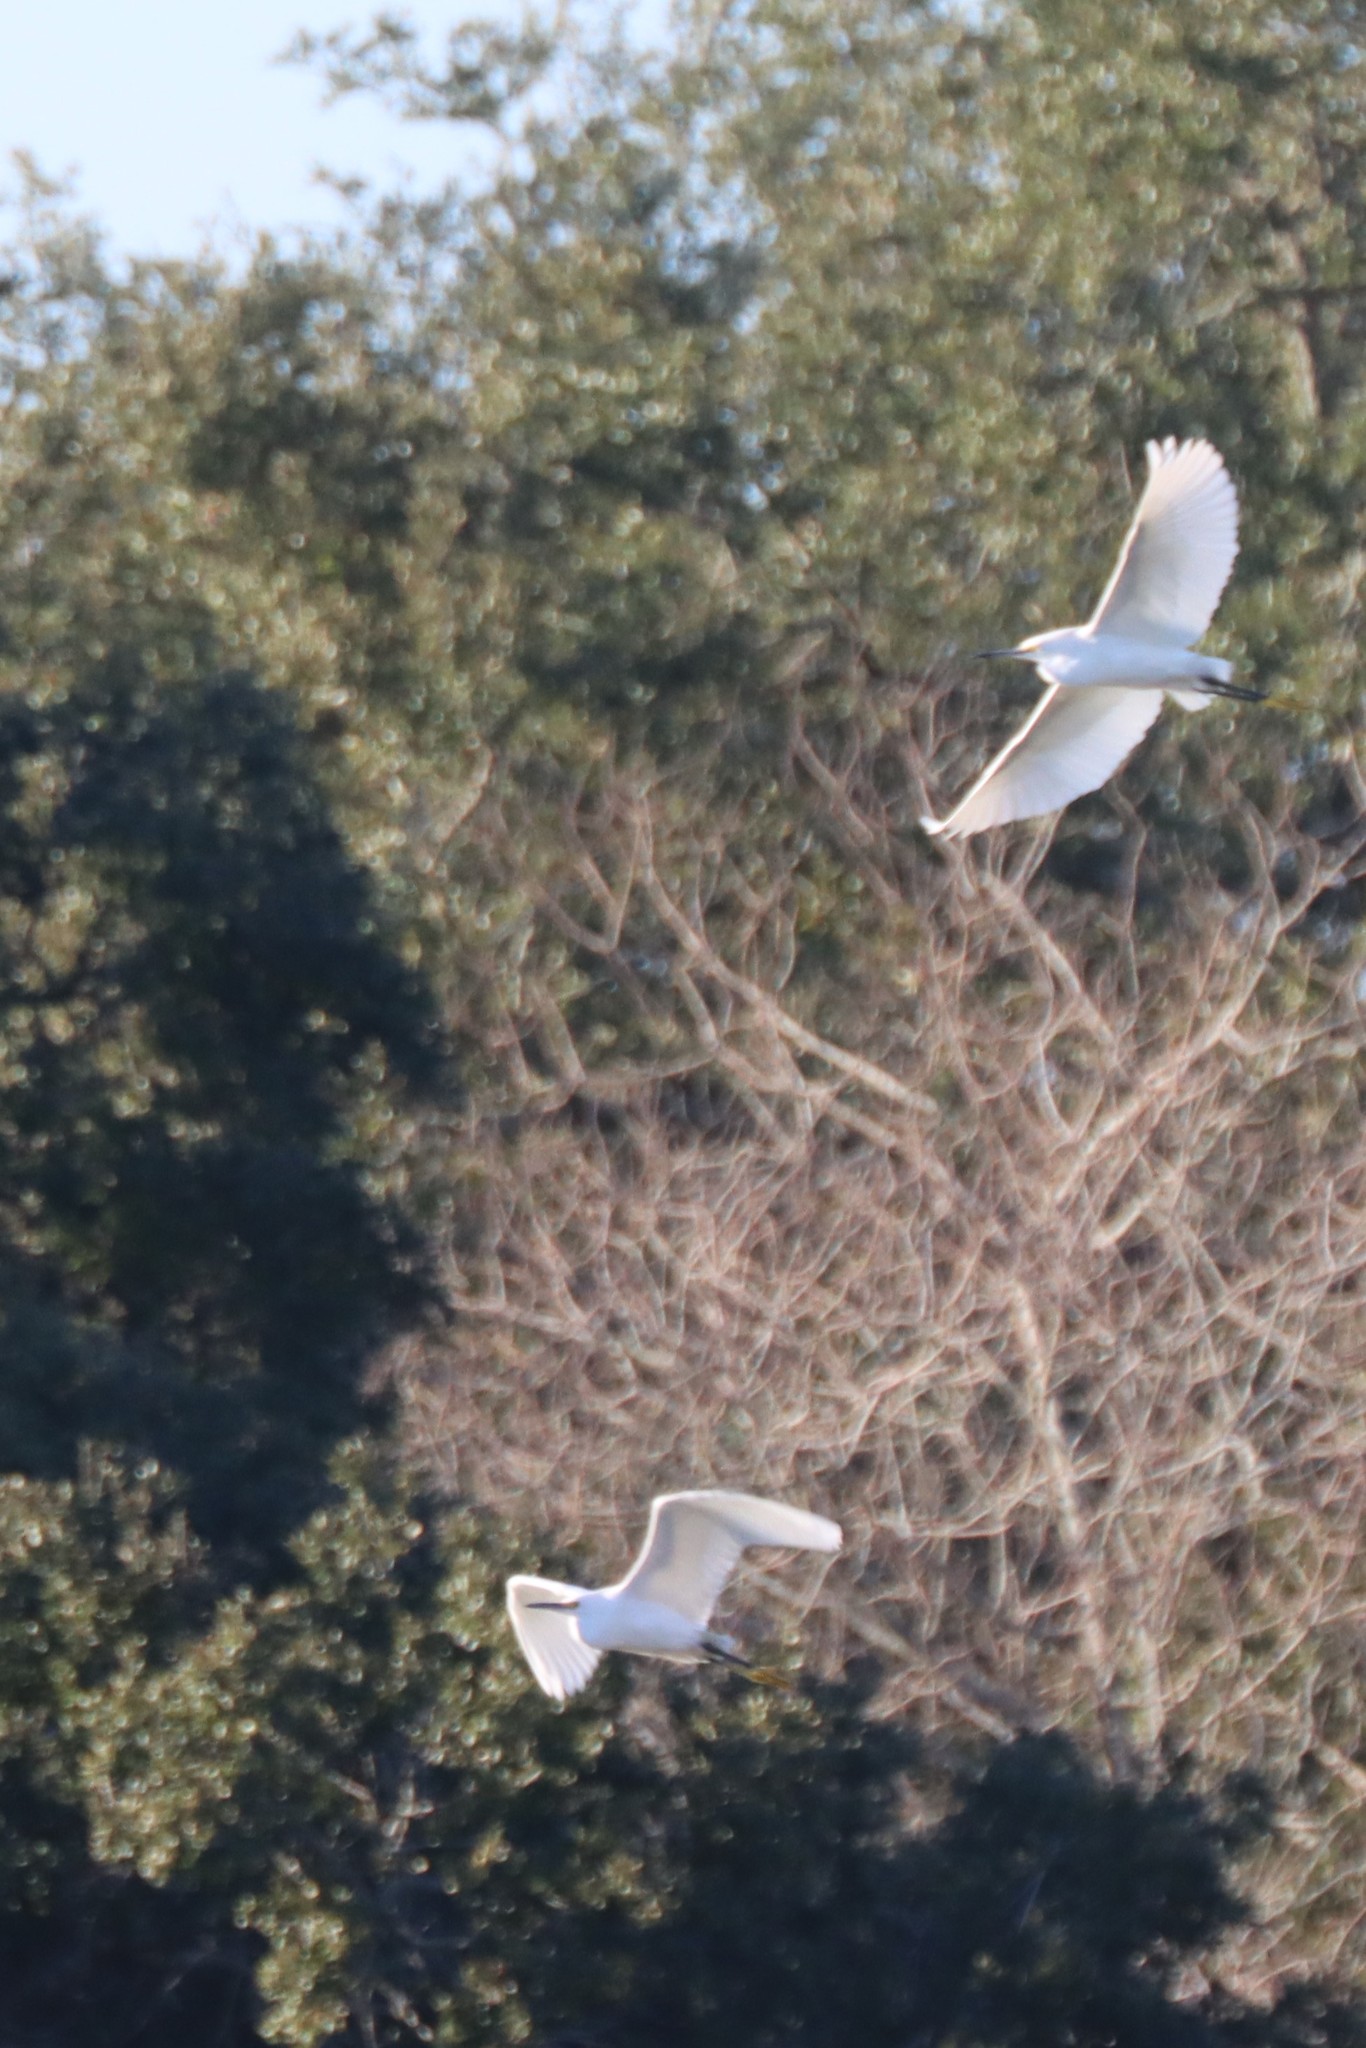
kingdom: Animalia
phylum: Chordata
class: Aves
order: Pelecaniformes
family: Ardeidae
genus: Egretta
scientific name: Egretta thula
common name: Snowy egret
